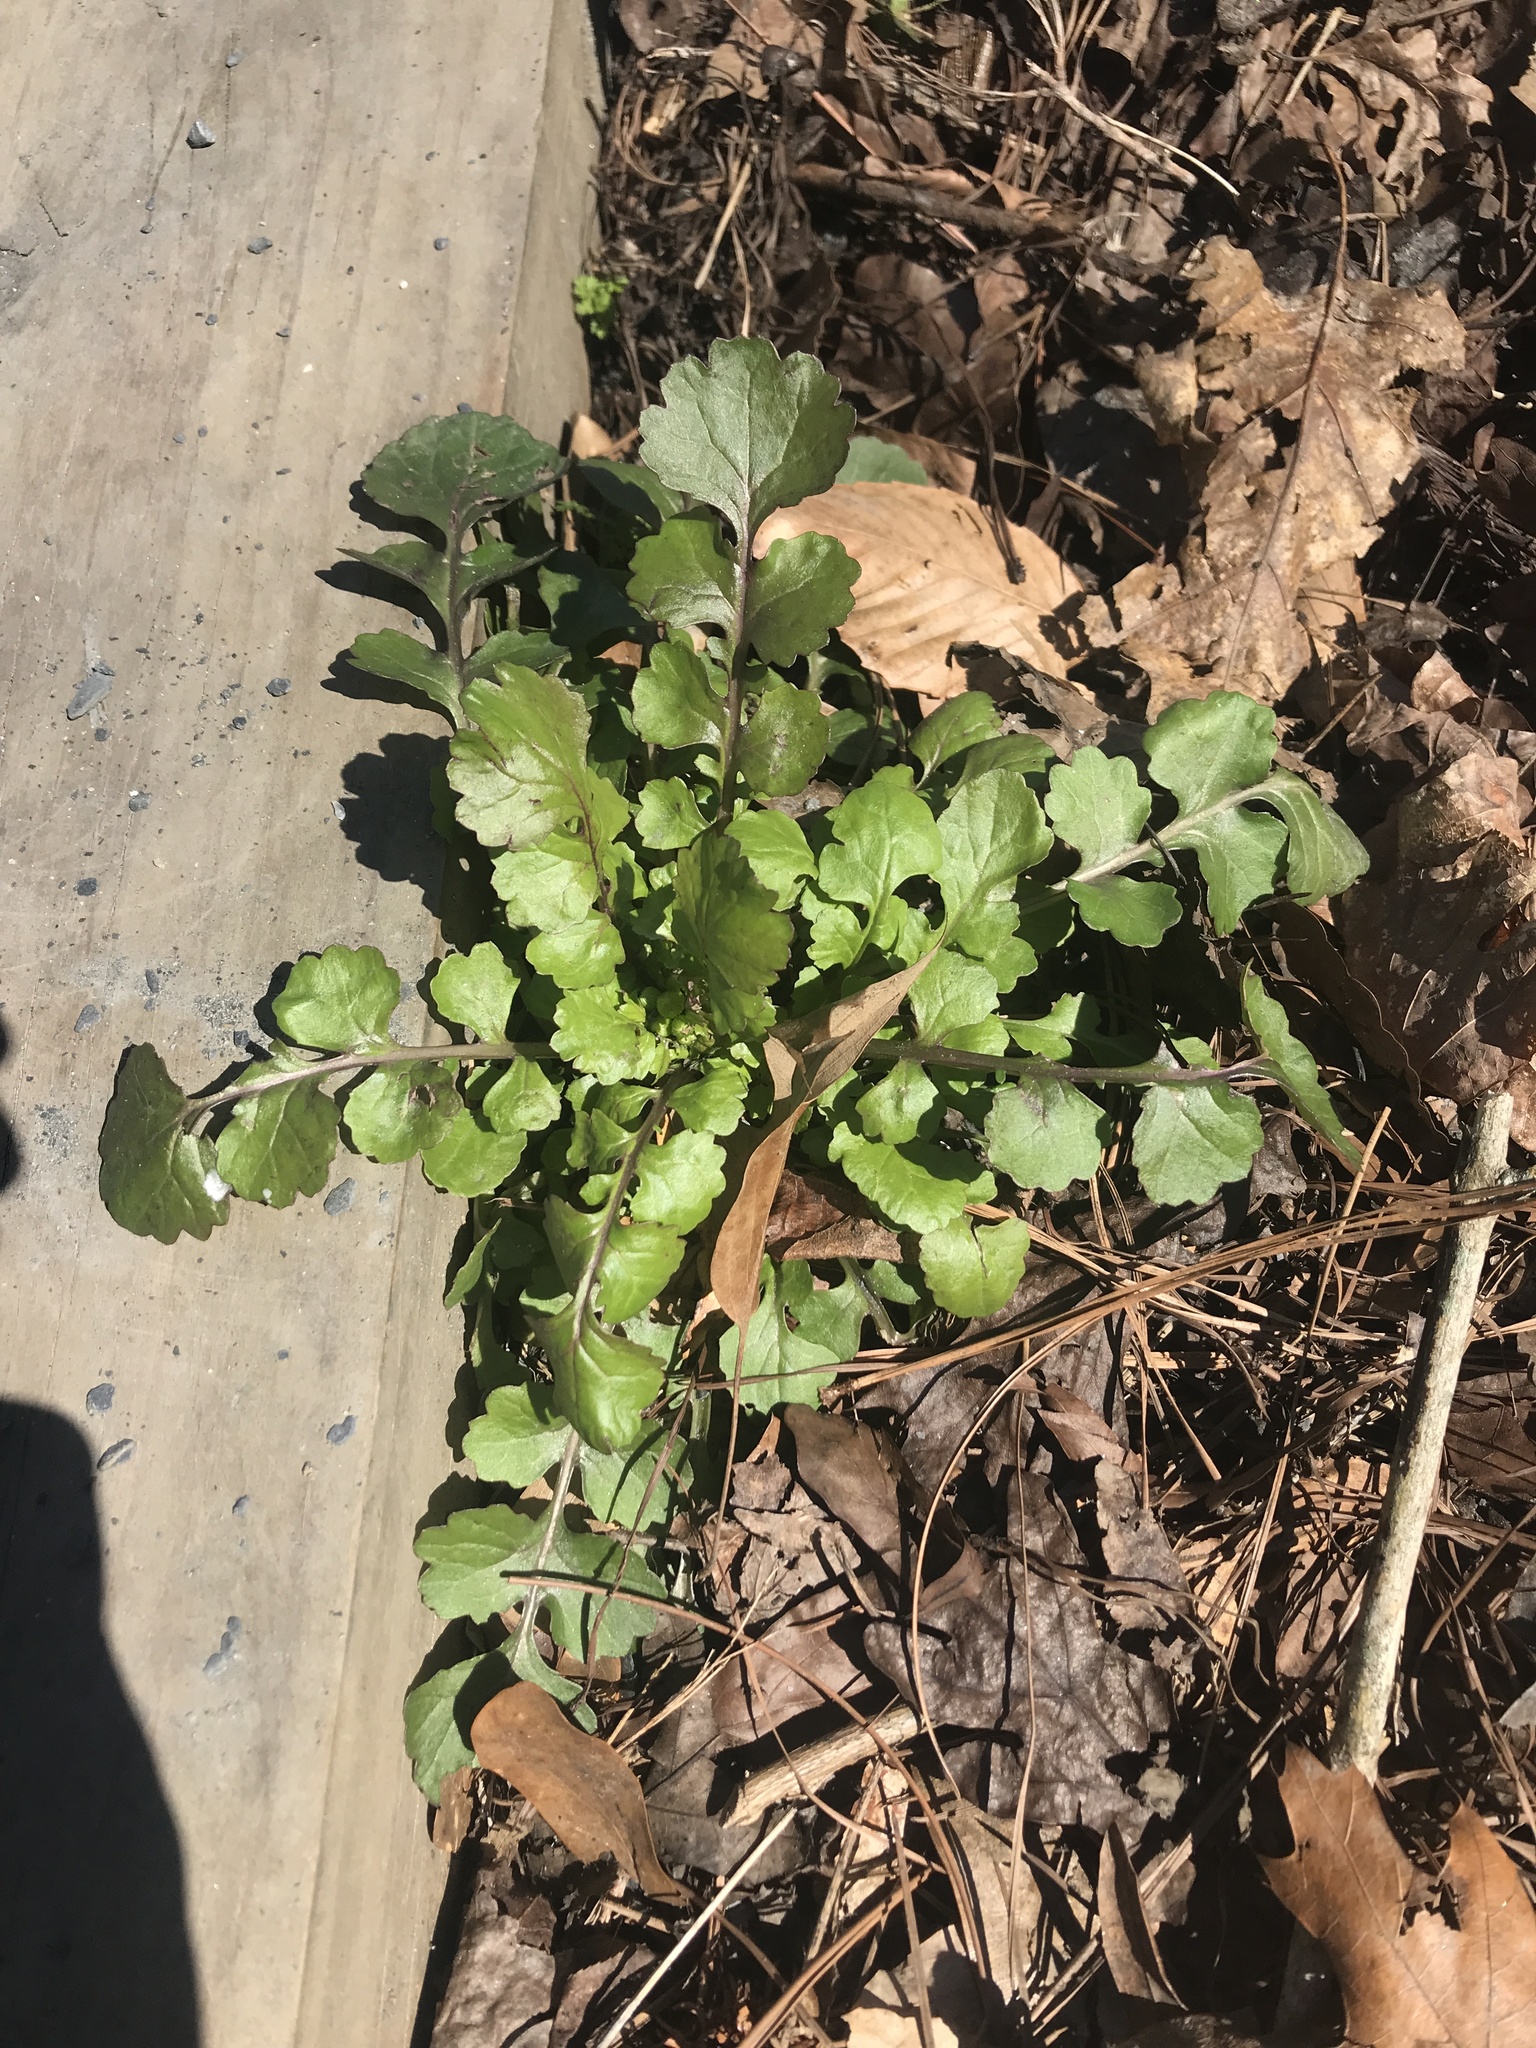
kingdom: Plantae
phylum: Tracheophyta
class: Magnoliopsida
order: Asterales
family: Asteraceae
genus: Packera
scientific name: Packera glabella
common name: Butterweed
